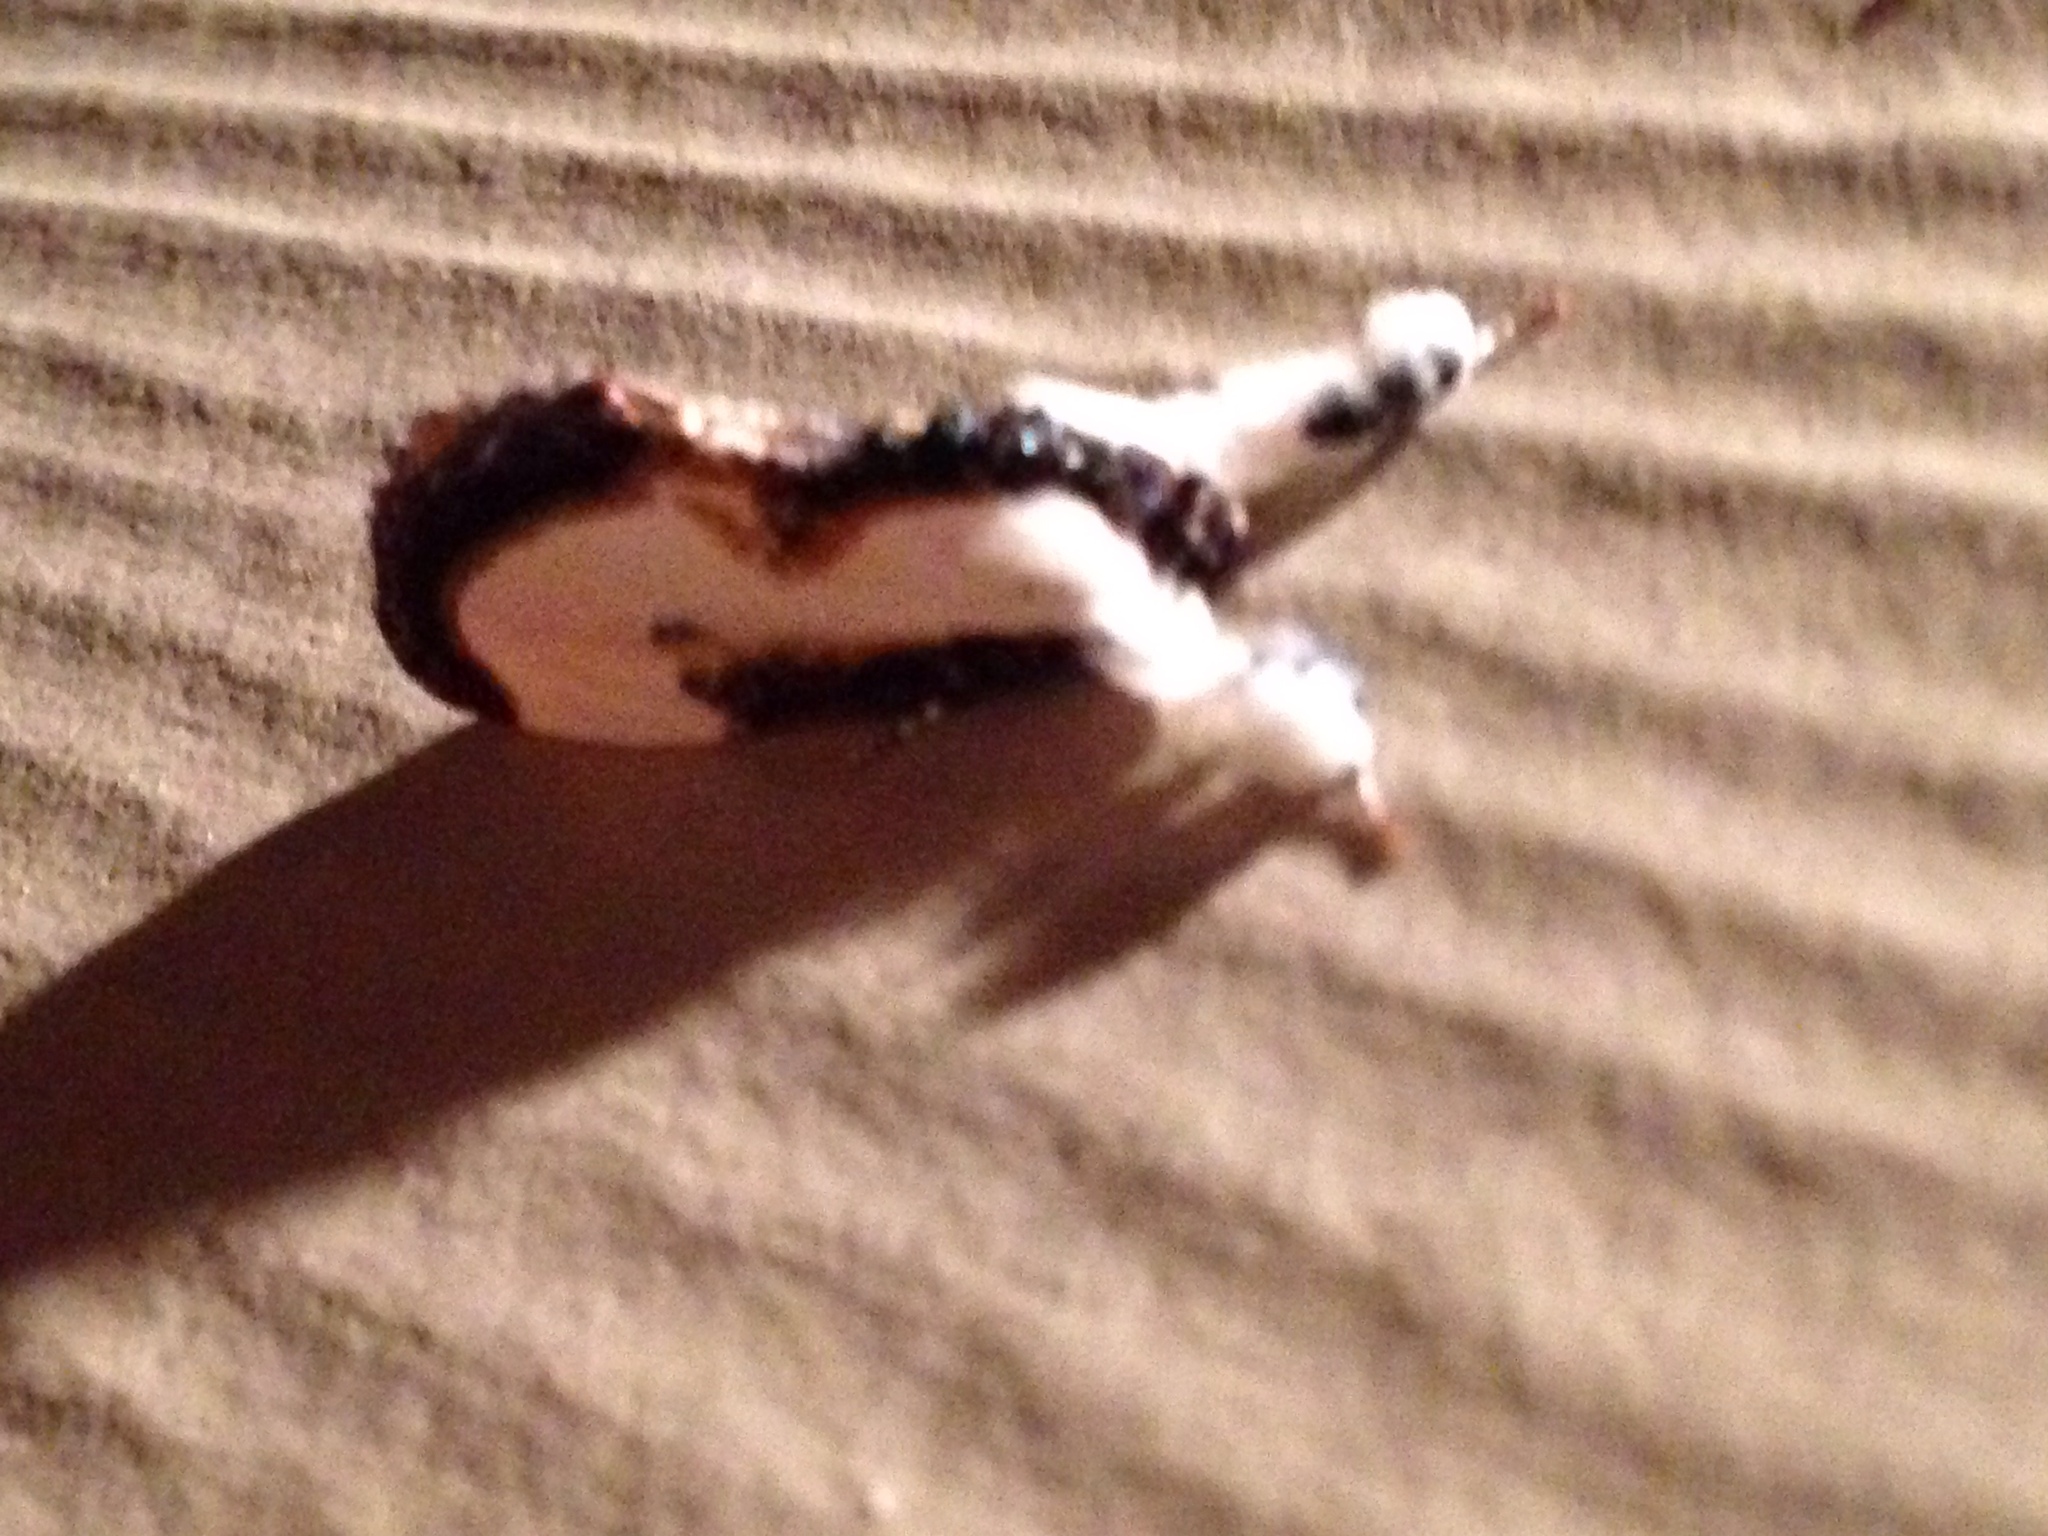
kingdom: Animalia
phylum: Arthropoda
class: Insecta
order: Lepidoptera
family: Noctuidae
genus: Eudryas
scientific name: Eudryas grata
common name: Beautiful wood-nymph
